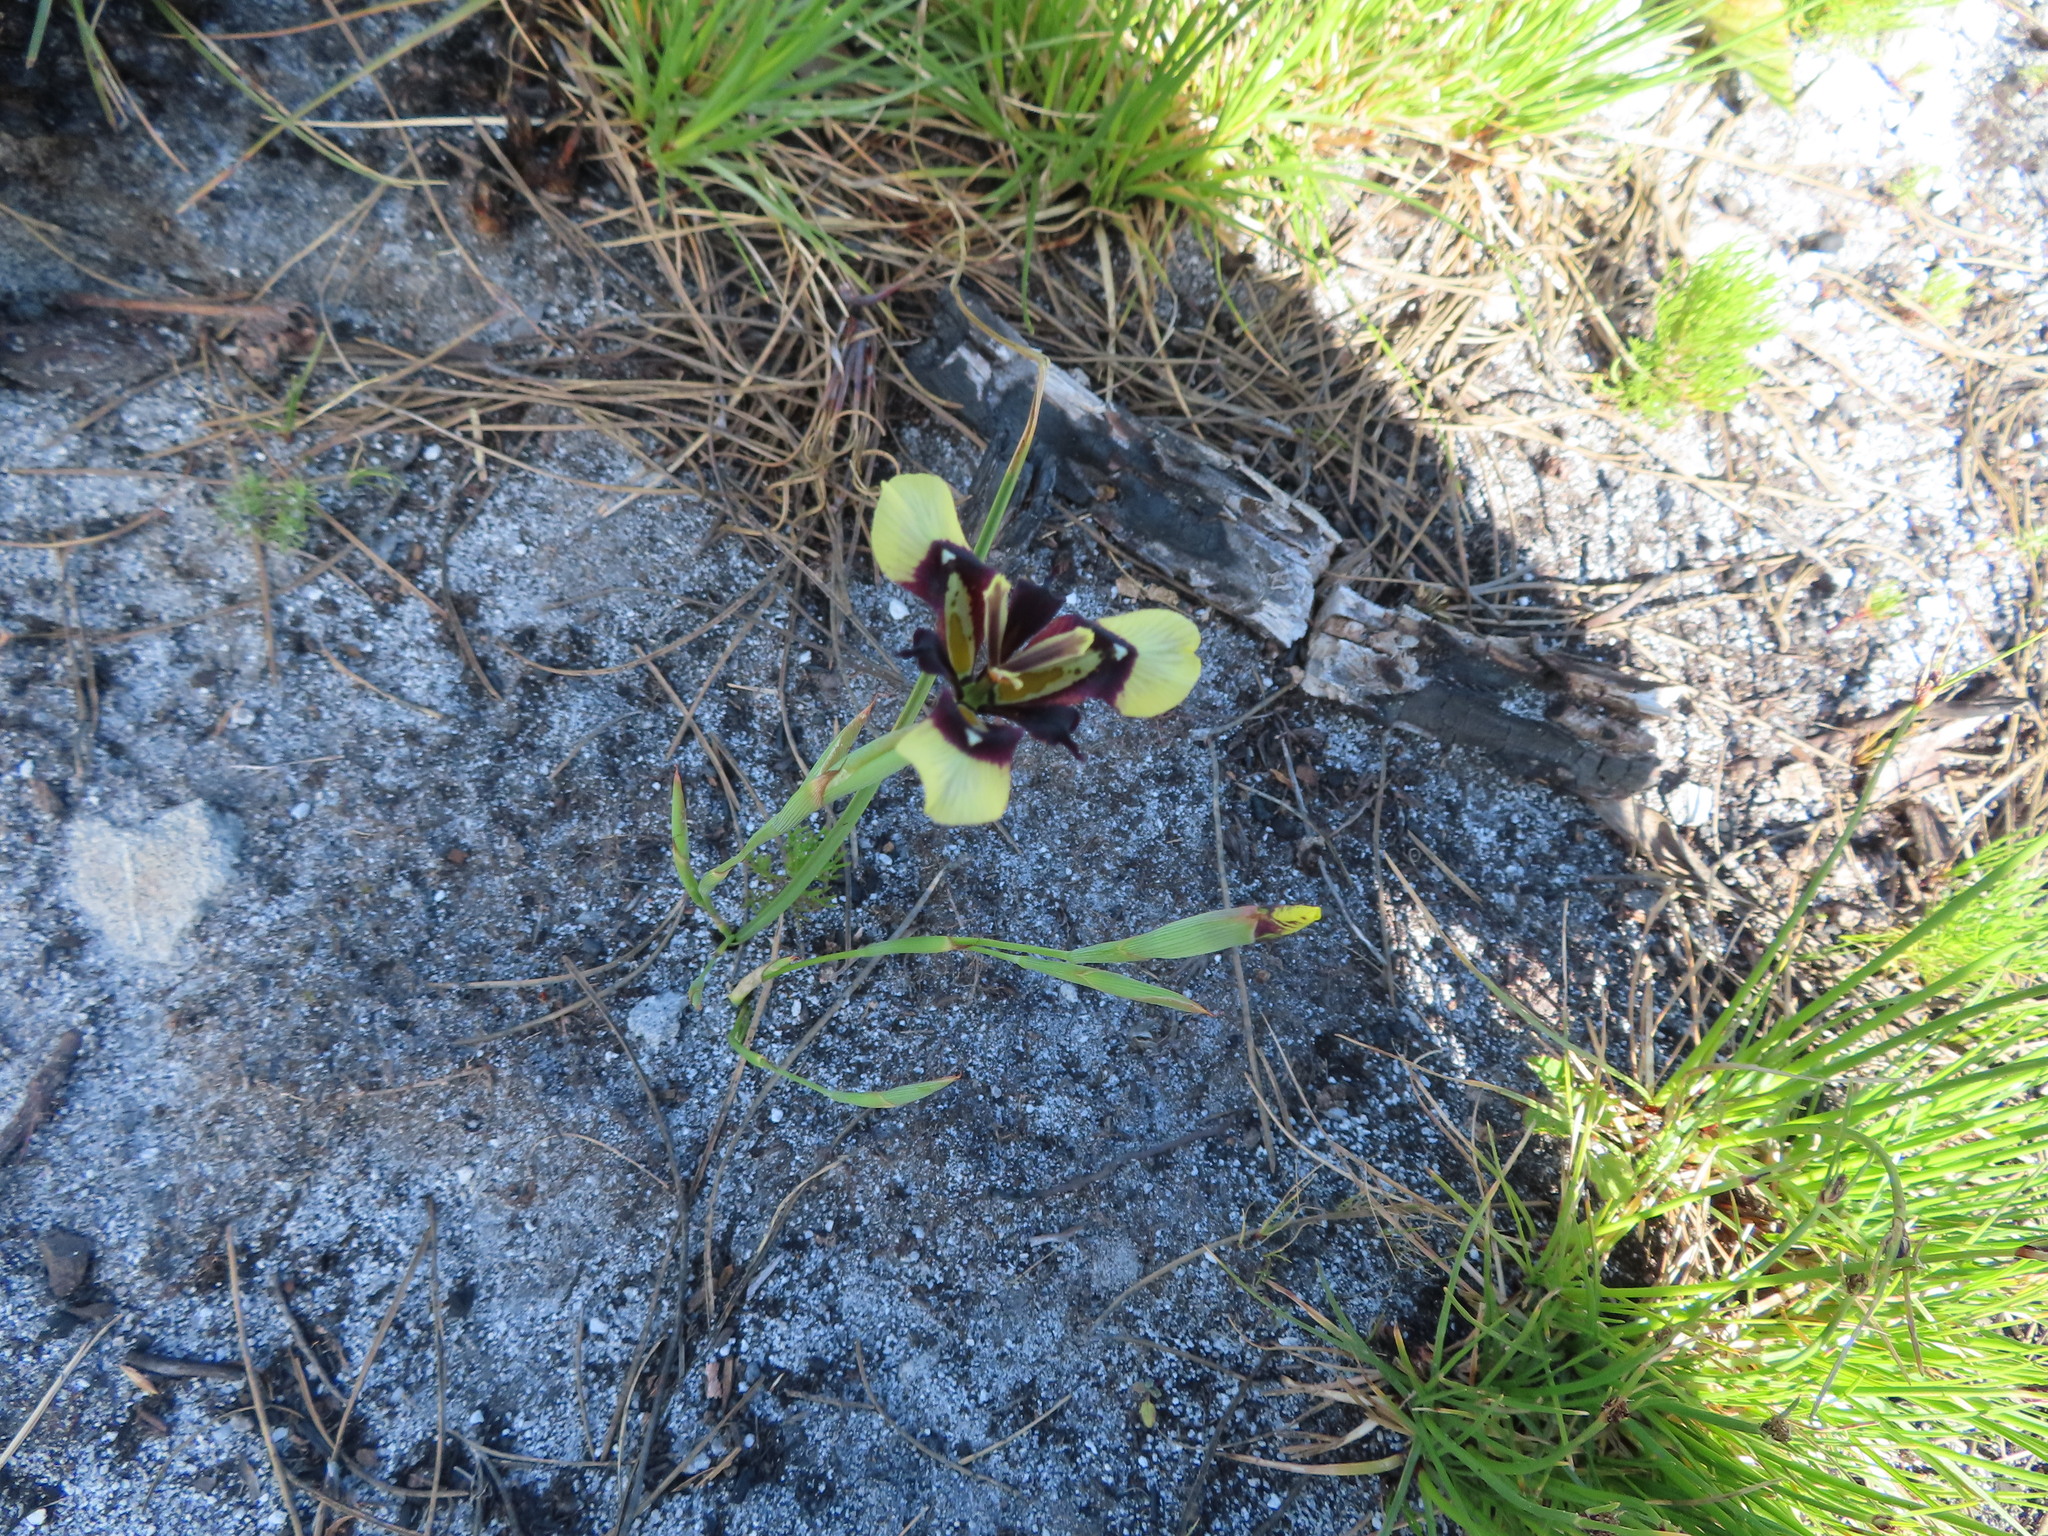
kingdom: Plantae
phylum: Tracheophyta
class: Liliopsida
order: Asparagales
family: Iridaceae
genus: Moraea
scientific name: Moraea lurida
